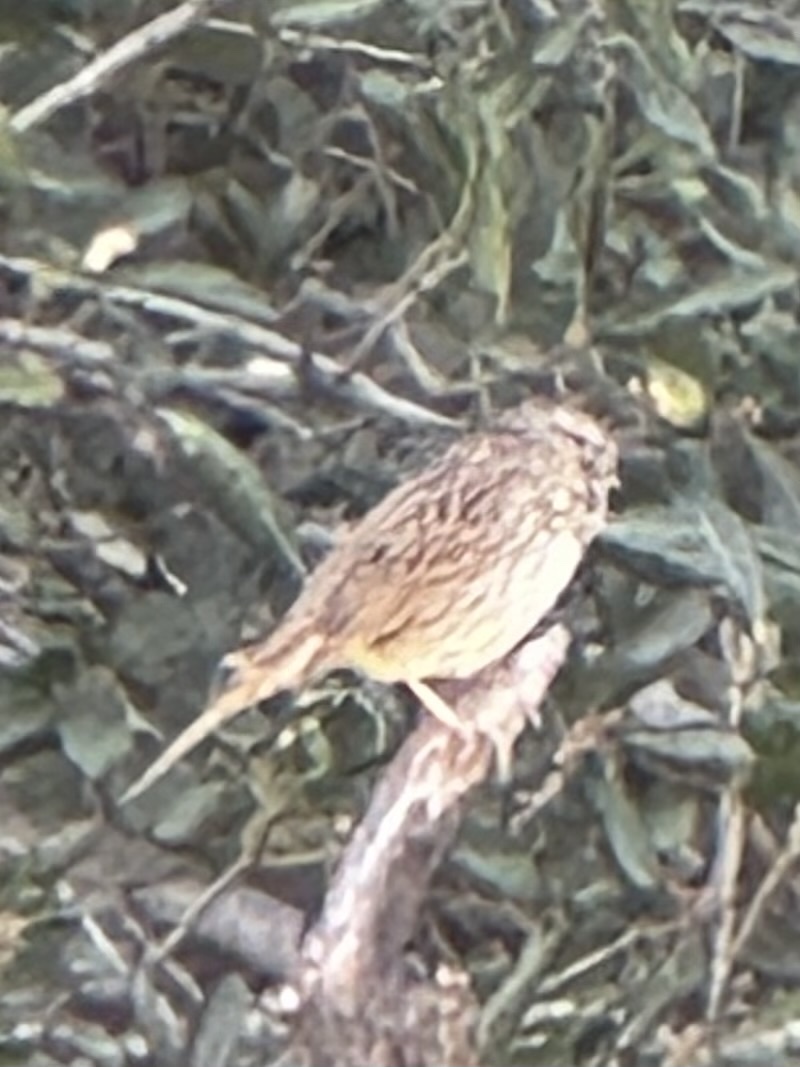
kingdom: Animalia
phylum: Chordata
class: Aves
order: Passeriformes
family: Passerellidae
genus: Melospiza
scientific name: Melospiza lincolnii
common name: Lincoln's sparrow
